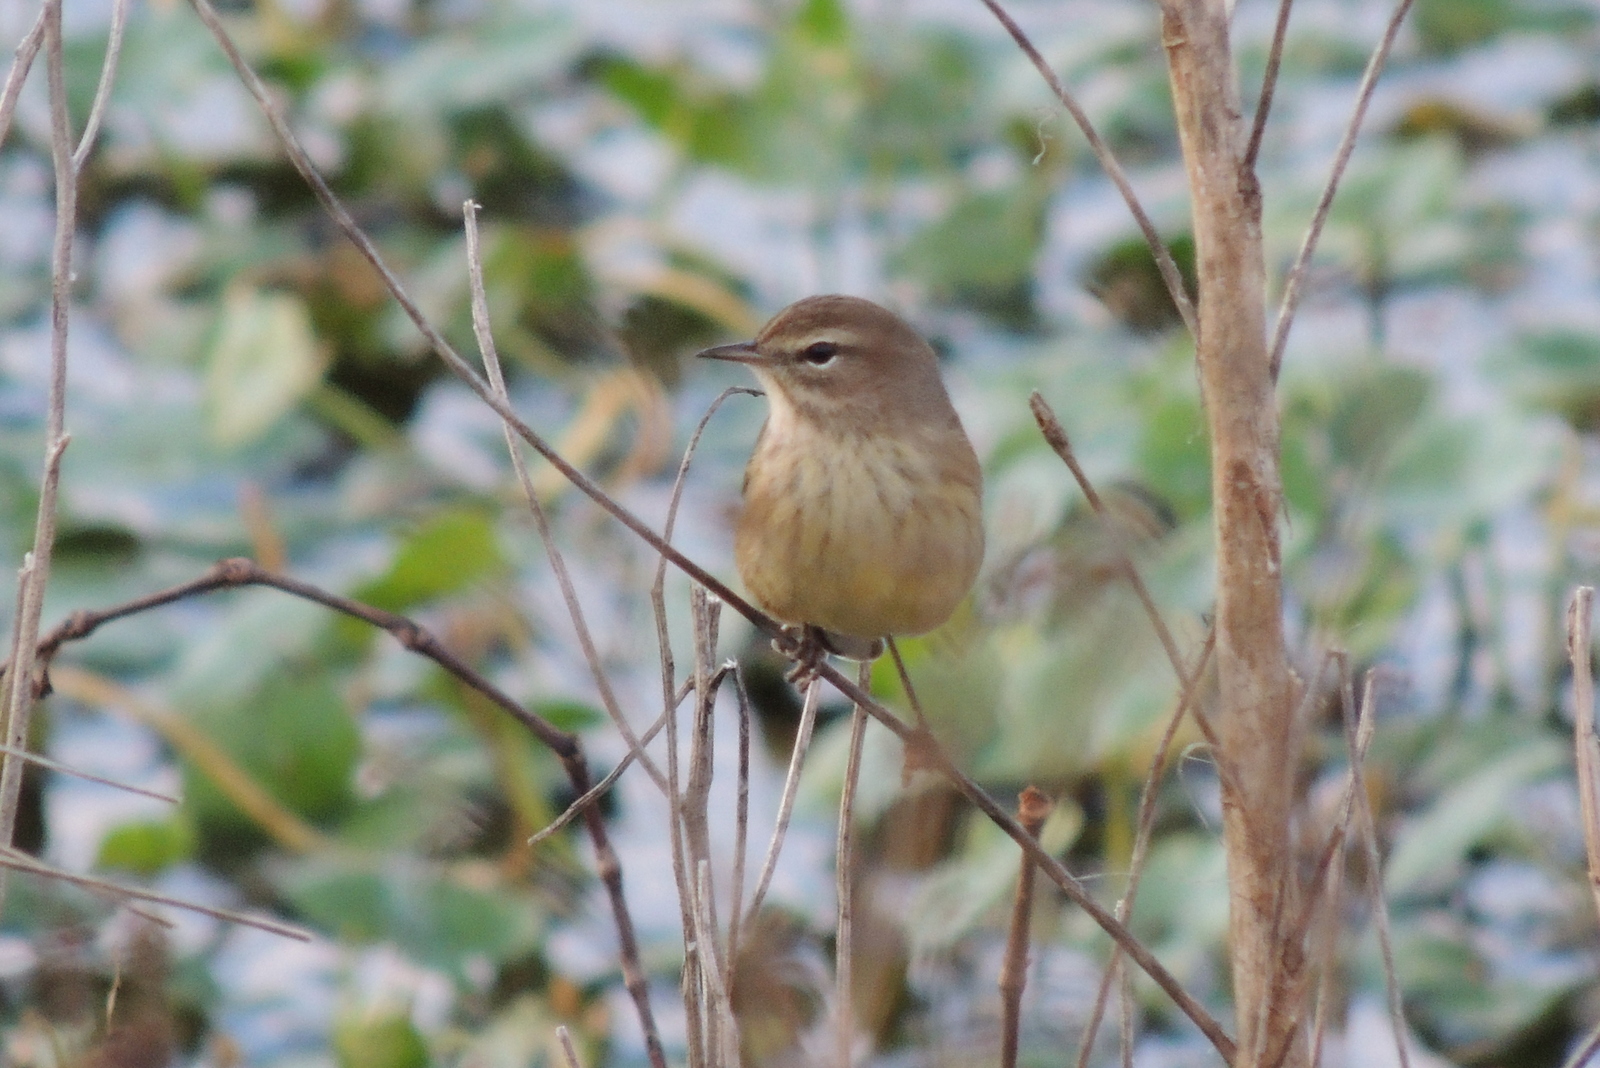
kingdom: Animalia
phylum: Chordata
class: Aves
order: Passeriformes
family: Parulidae
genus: Setophaga
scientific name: Setophaga palmarum
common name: Palm warbler
